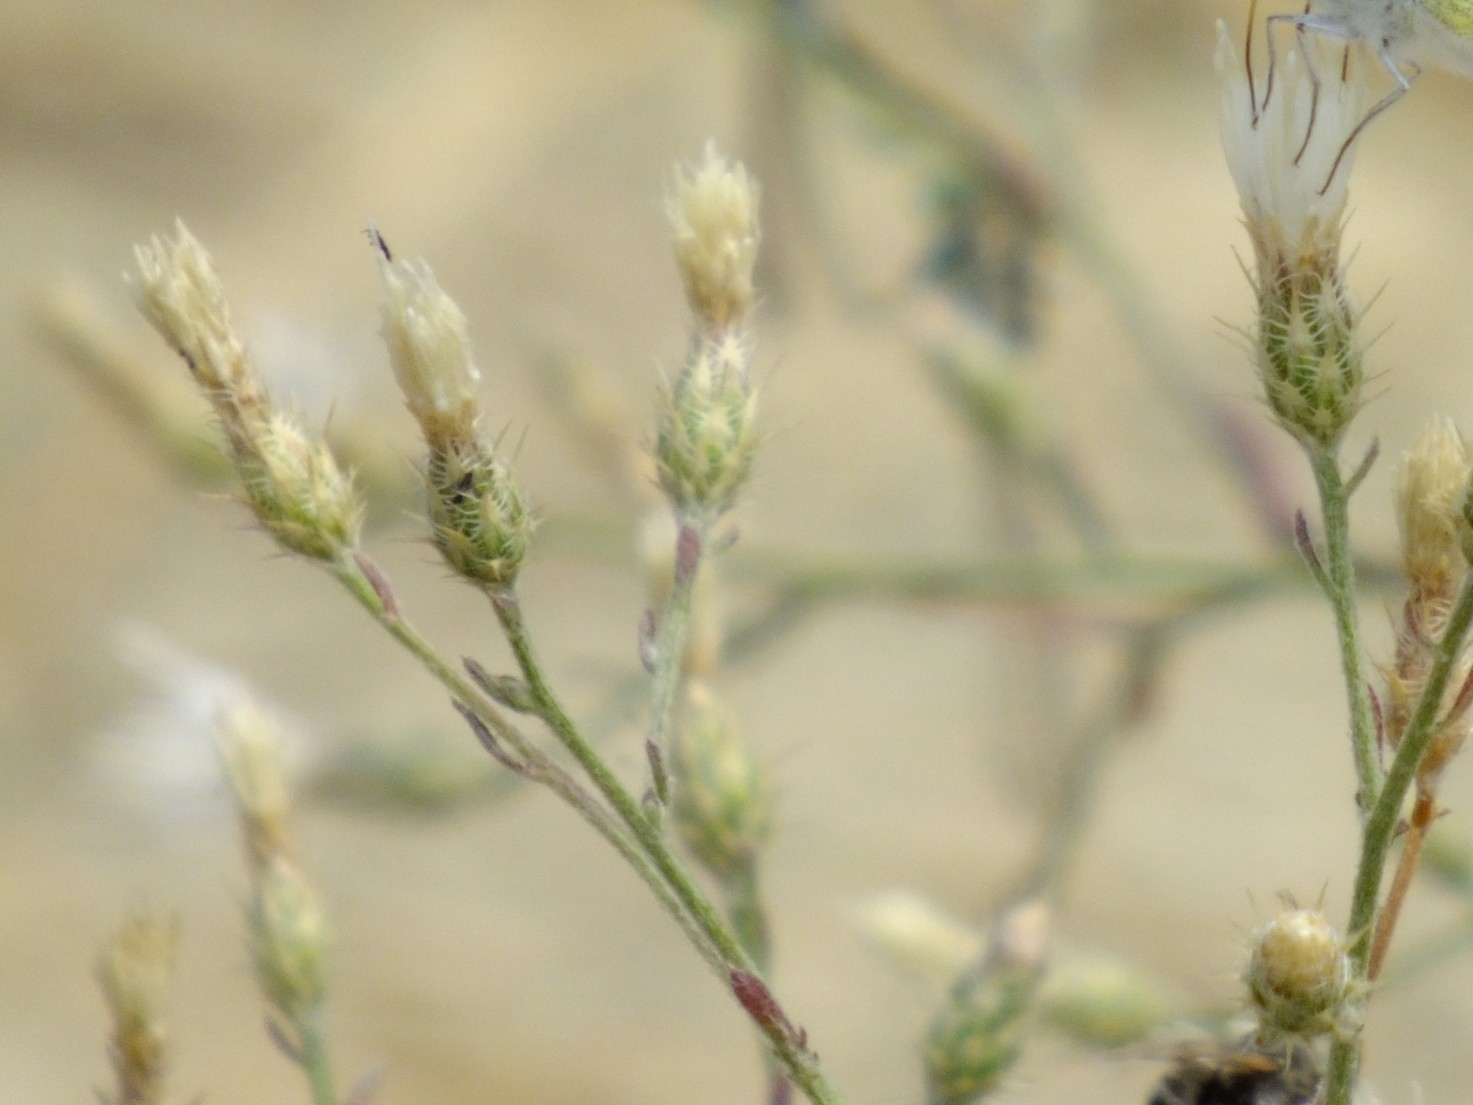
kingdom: Plantae
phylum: Tracheophyta
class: Magnoliopsida
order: Asterales
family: Asteraceae
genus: Centaurea
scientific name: Centaurea diffusa
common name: Diffuse knapweed
